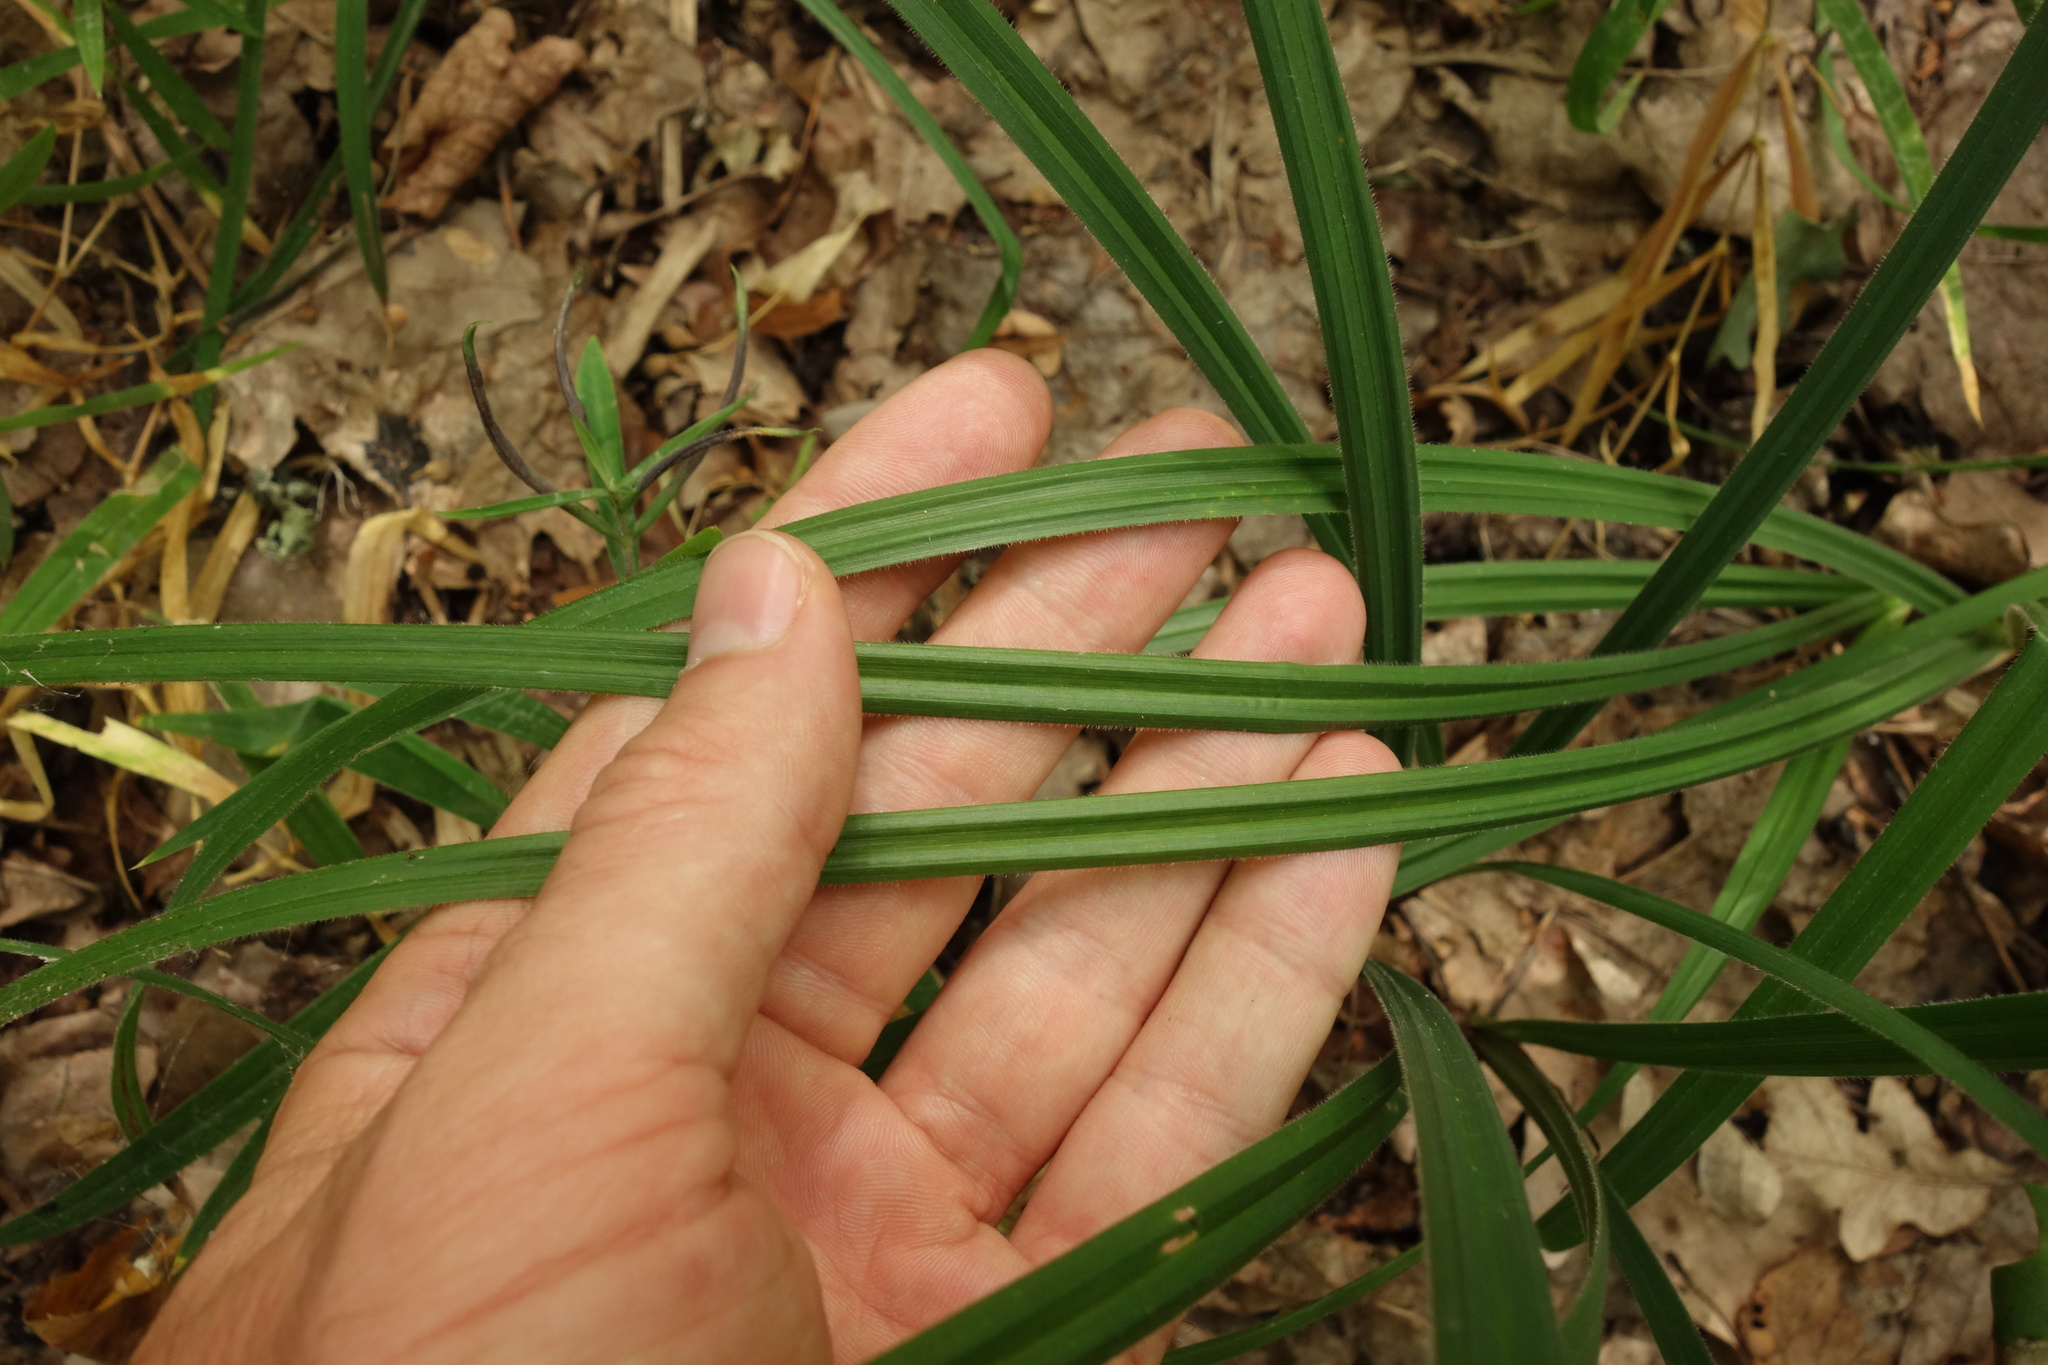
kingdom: Plantae
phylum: Tracheophyta
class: Liliopsida
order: Poales
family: Cyperaceae
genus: Carex
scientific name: Carex pilosa
